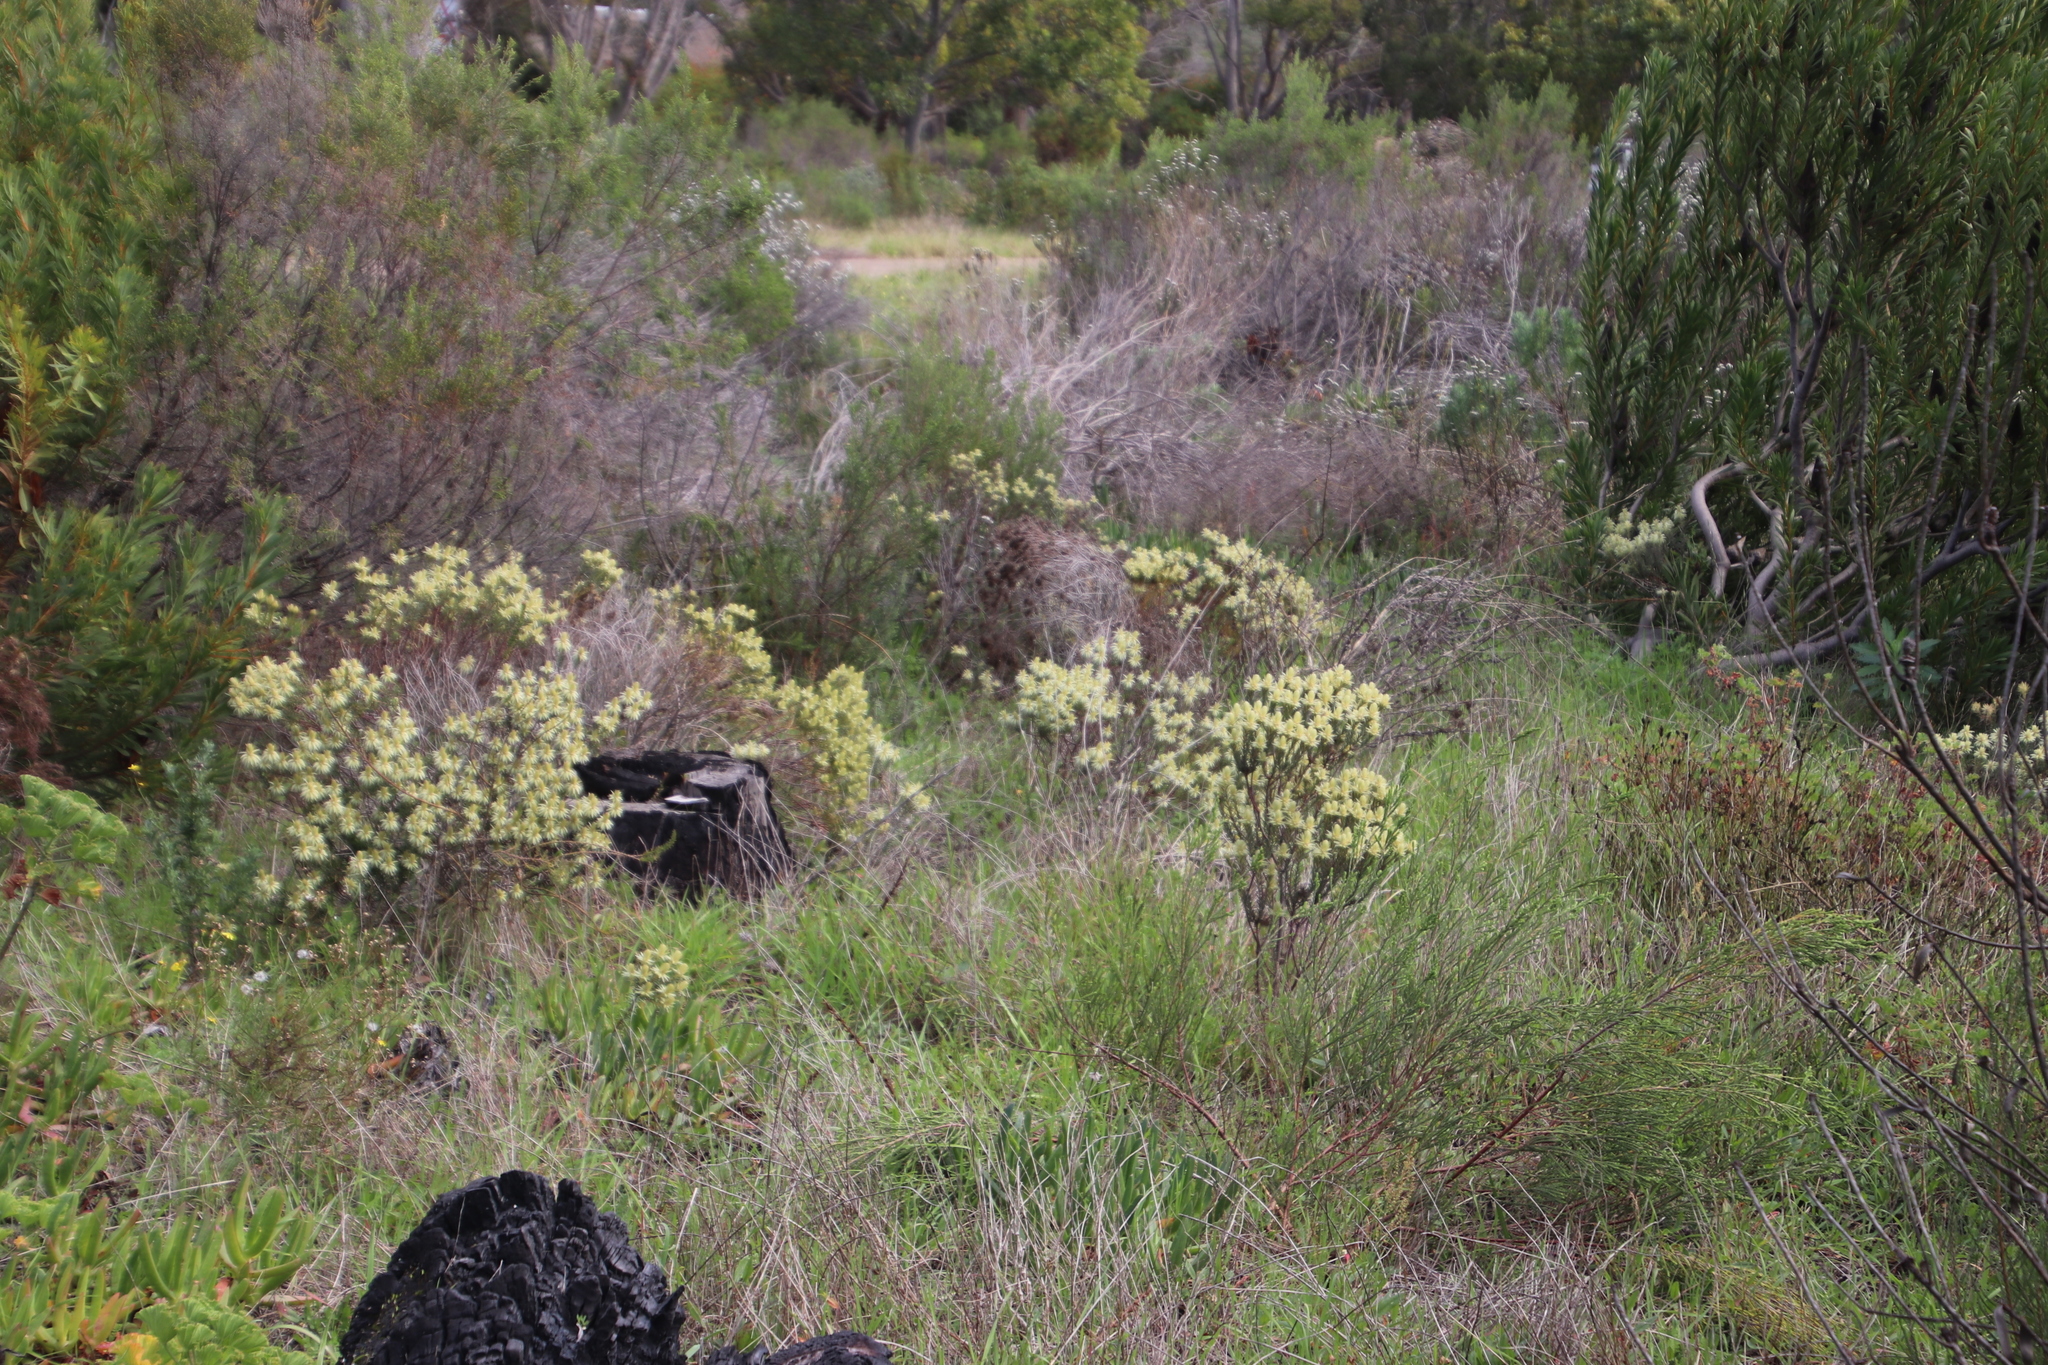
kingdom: Plantae
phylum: Tracheophyta
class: Magnoliopsida
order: Rosales
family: Rhamnaceae
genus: Phylica
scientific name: Phylica pubescens
